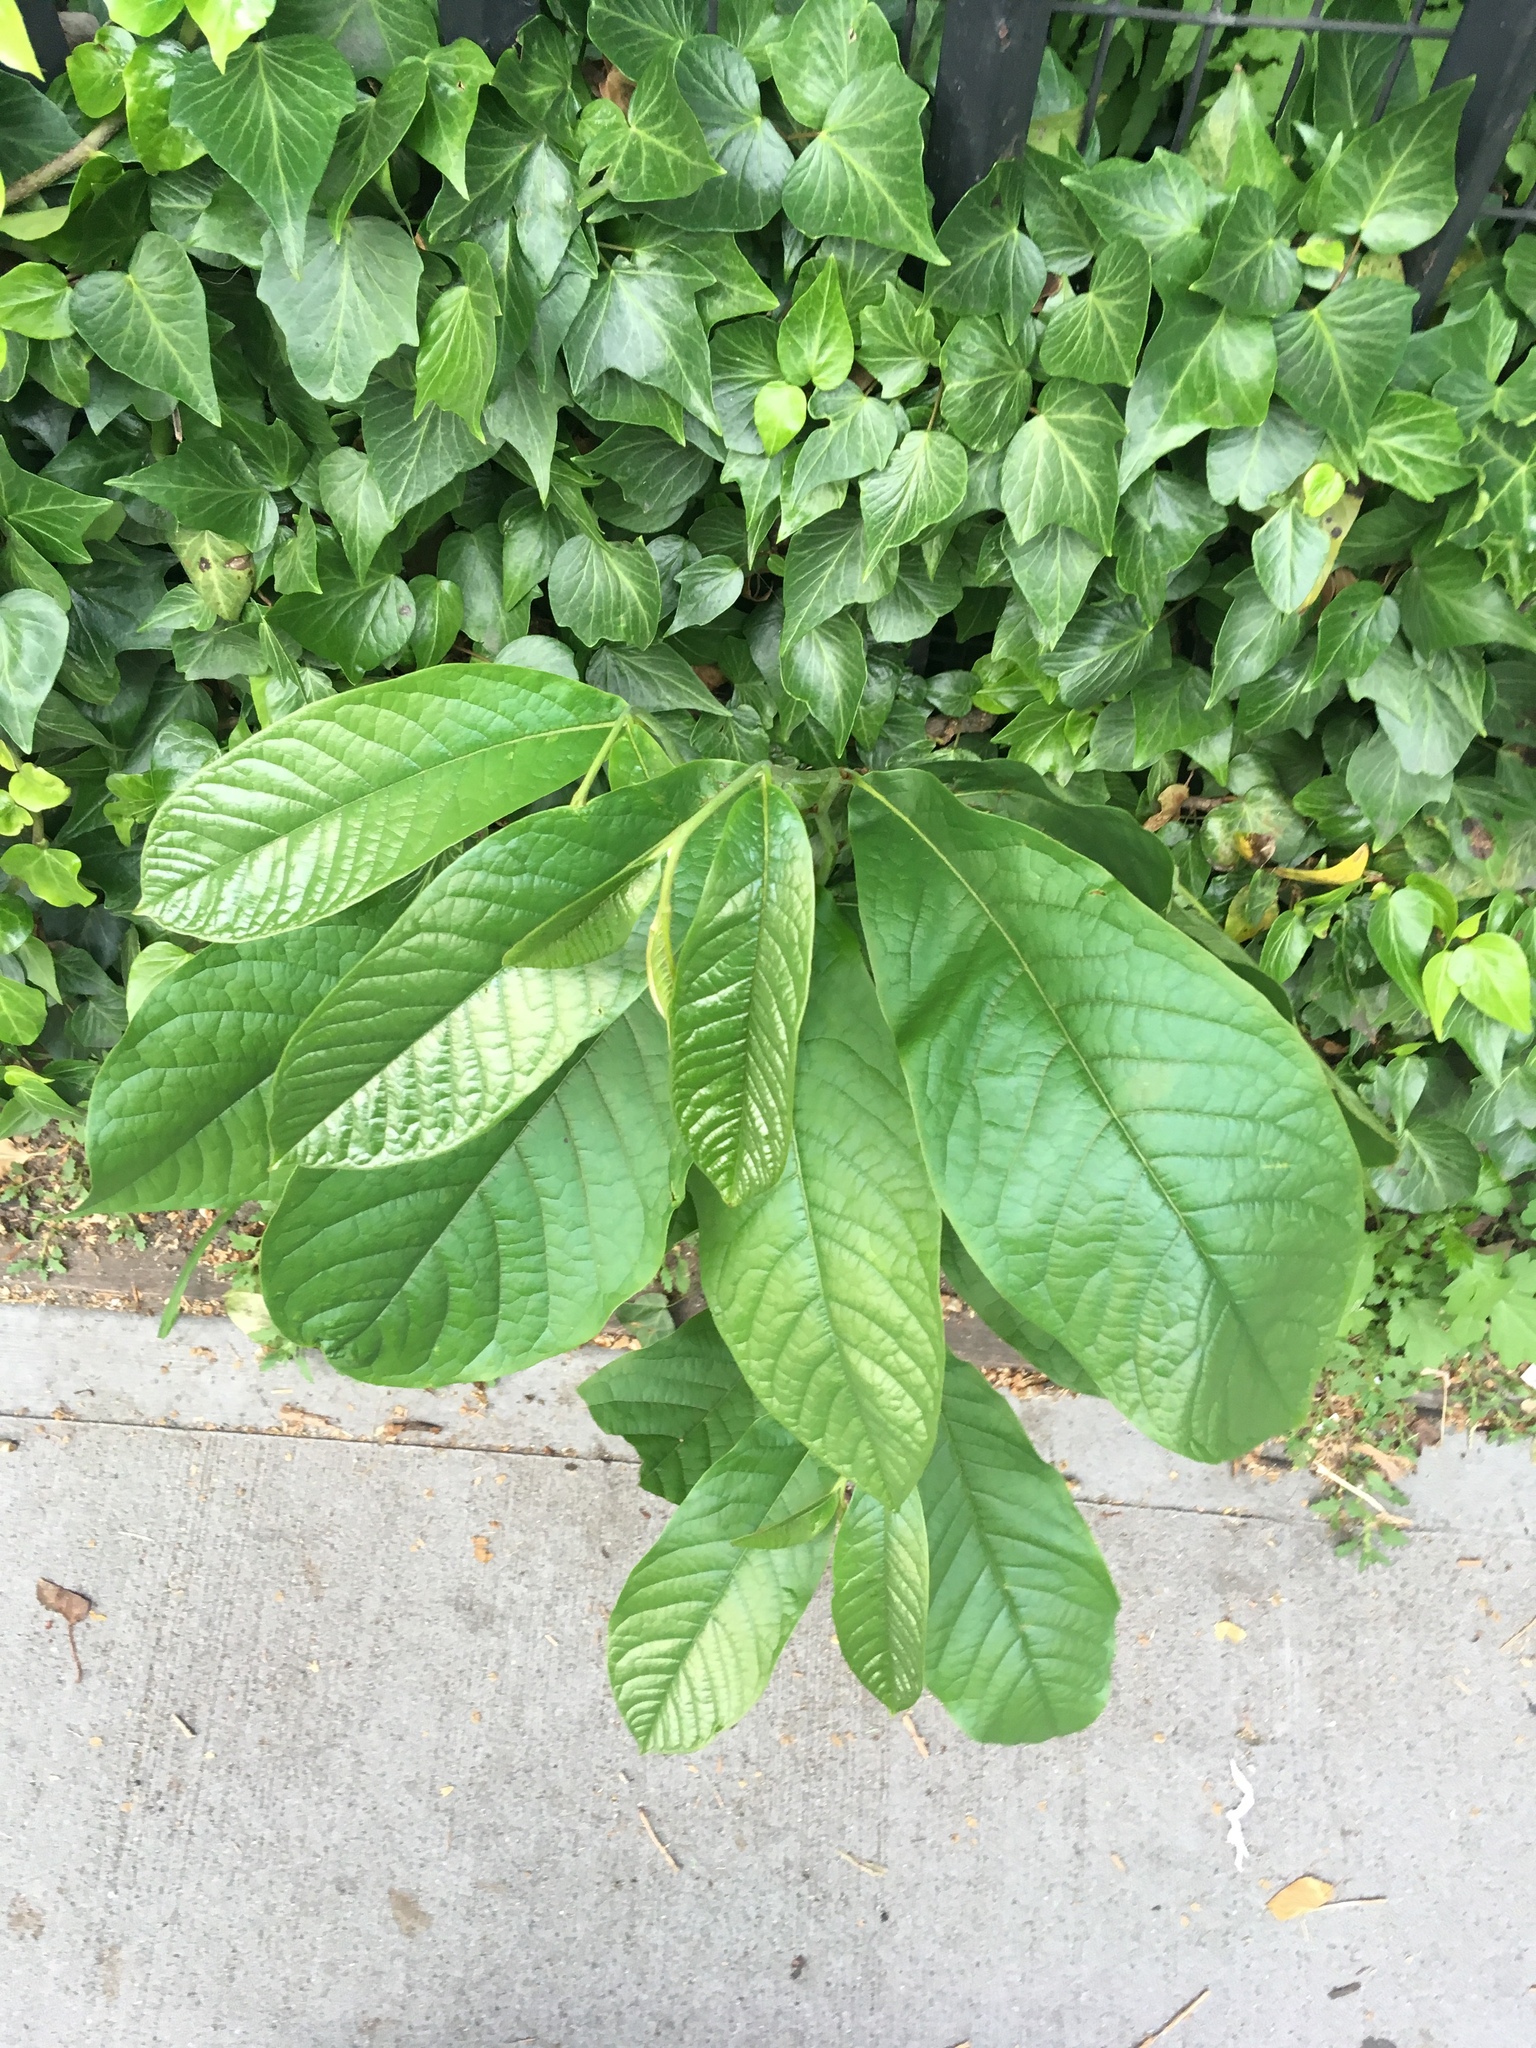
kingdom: Plantae
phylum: Tracheophyta
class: Magnoliopsida
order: Magnoliales
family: Annonaceae
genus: Asimina
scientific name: Asimina triloba
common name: Dog-banana
